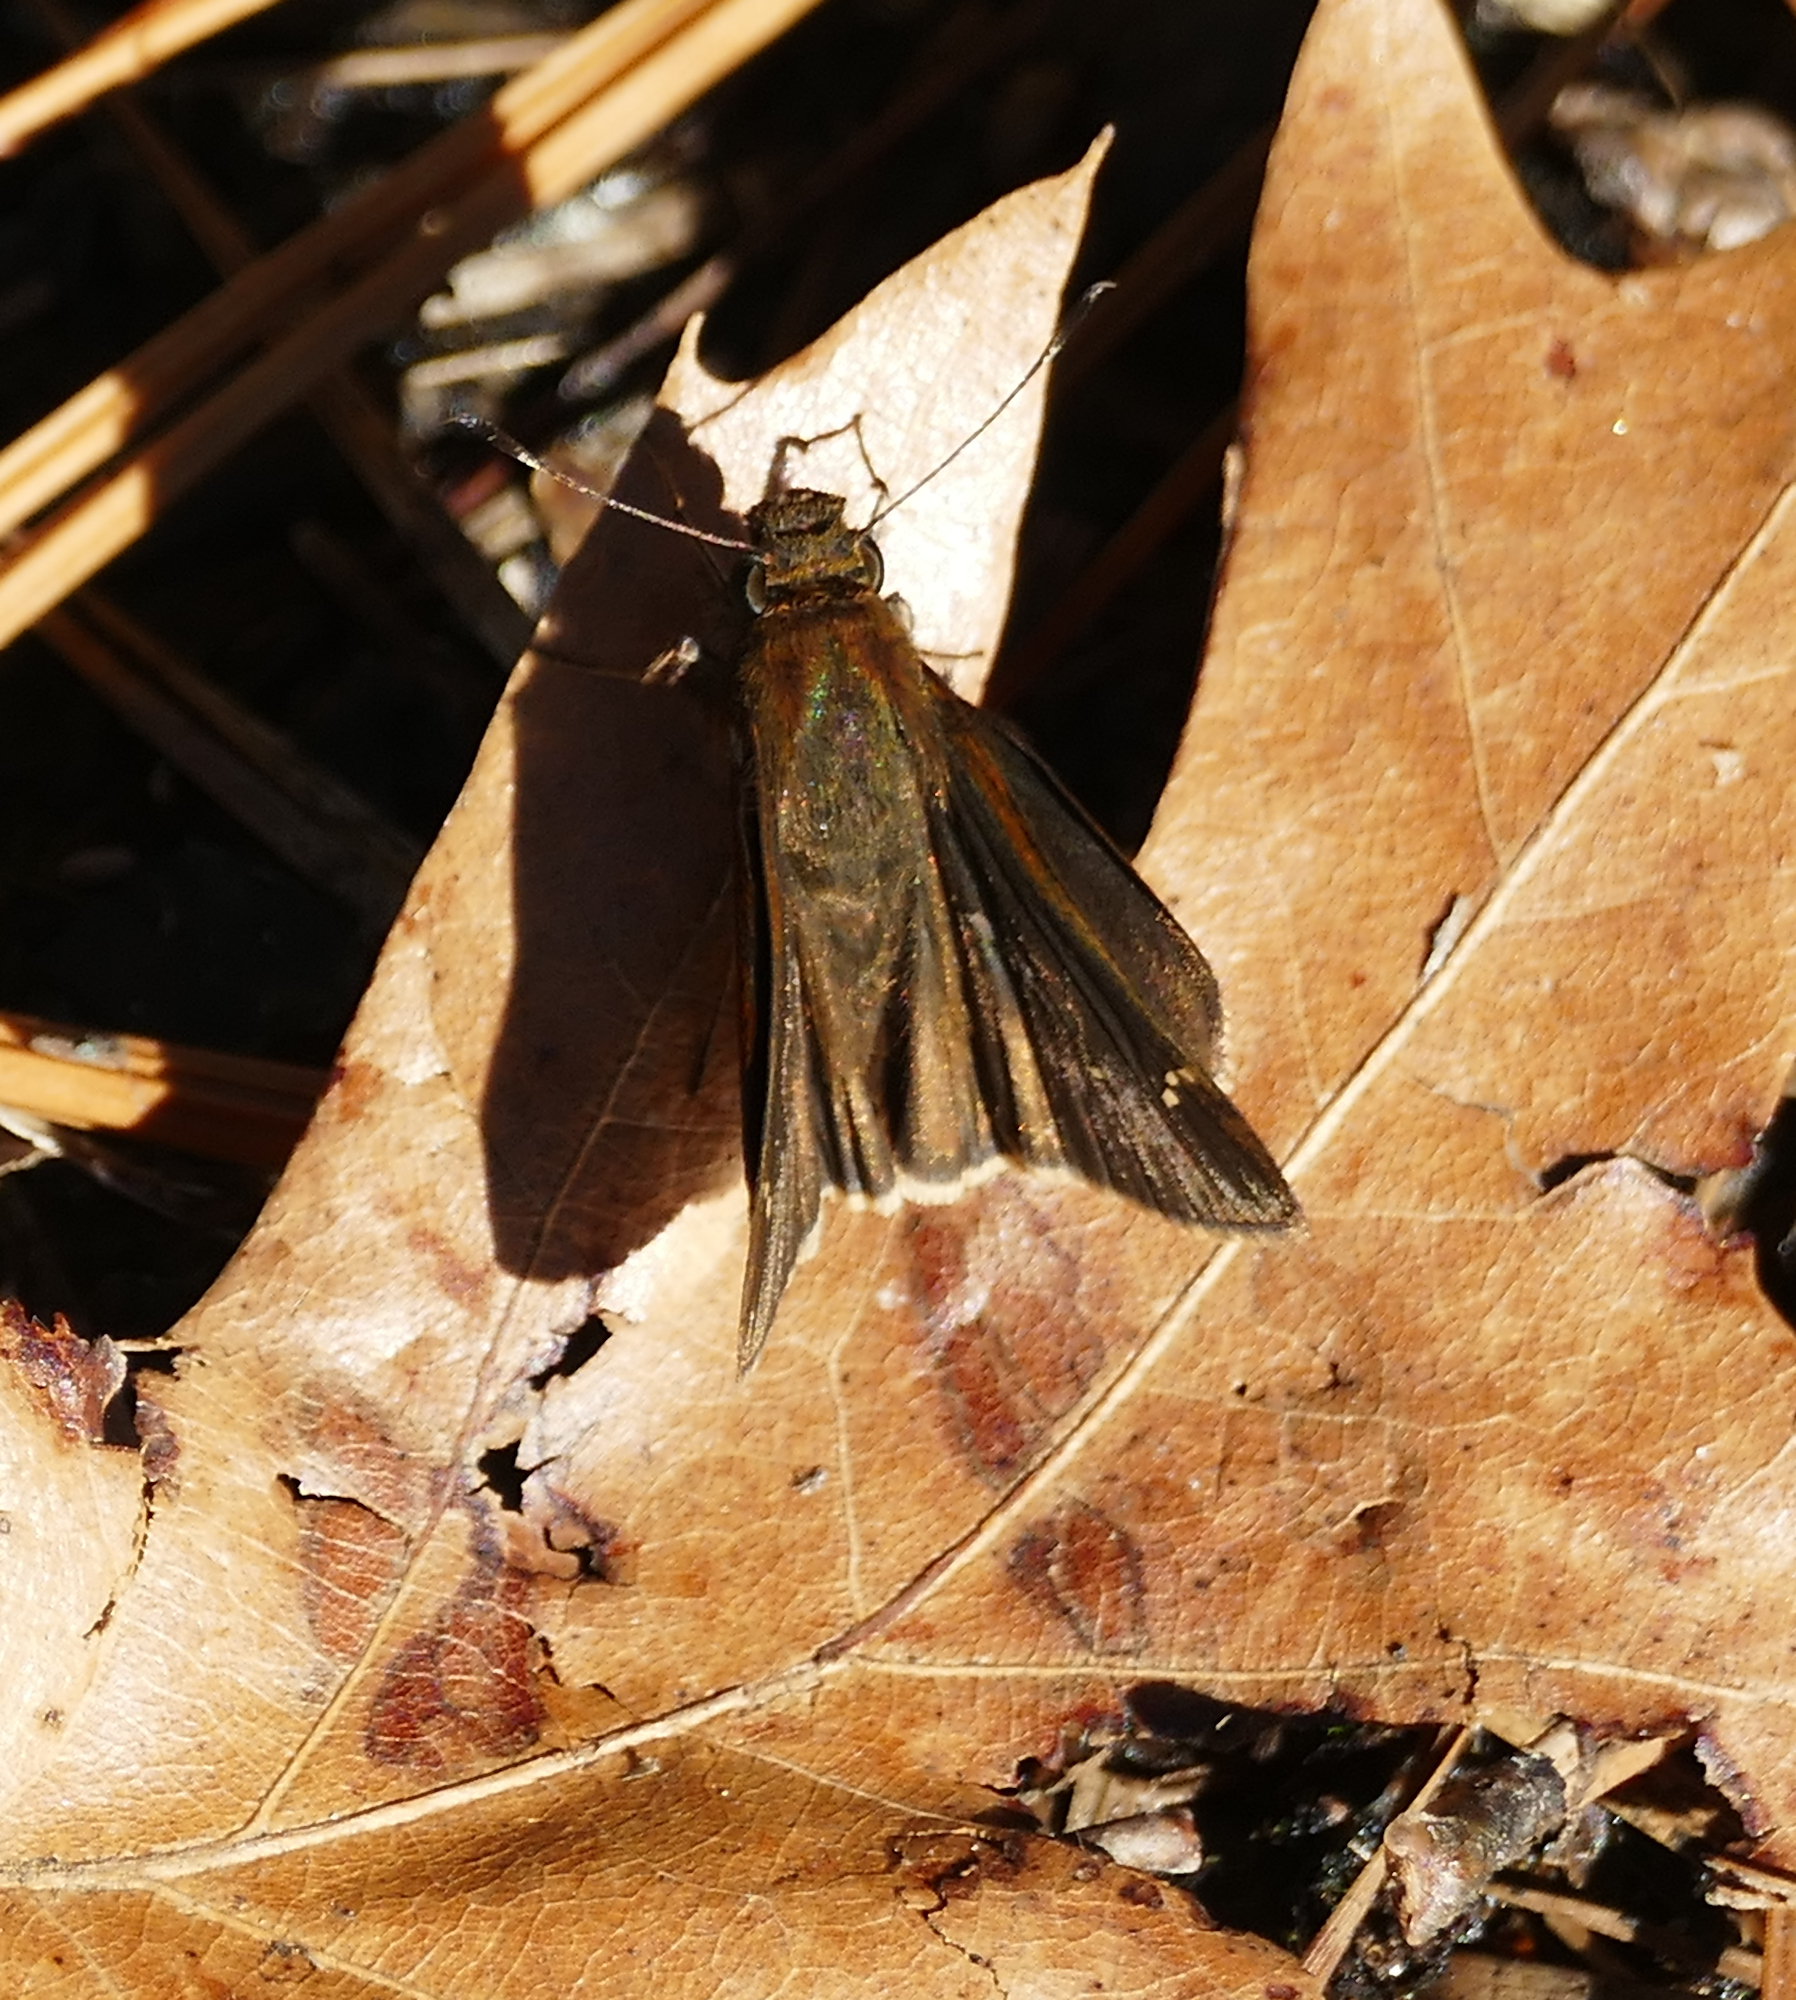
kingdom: Animalia
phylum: Arthropoda
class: Insecta
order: Lepidoptera
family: Hesperiidae
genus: Lerema
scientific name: Lerema accius
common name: Clouded skipper
